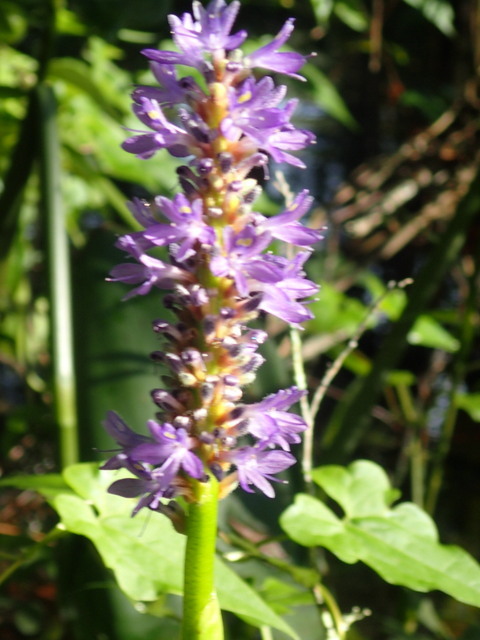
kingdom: Plantae
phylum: Tracheophyta
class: Liliopsida
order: Commelinales
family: Pontederiaceae
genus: Pontederia
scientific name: Pontederia cordata
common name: Pickerelweed
